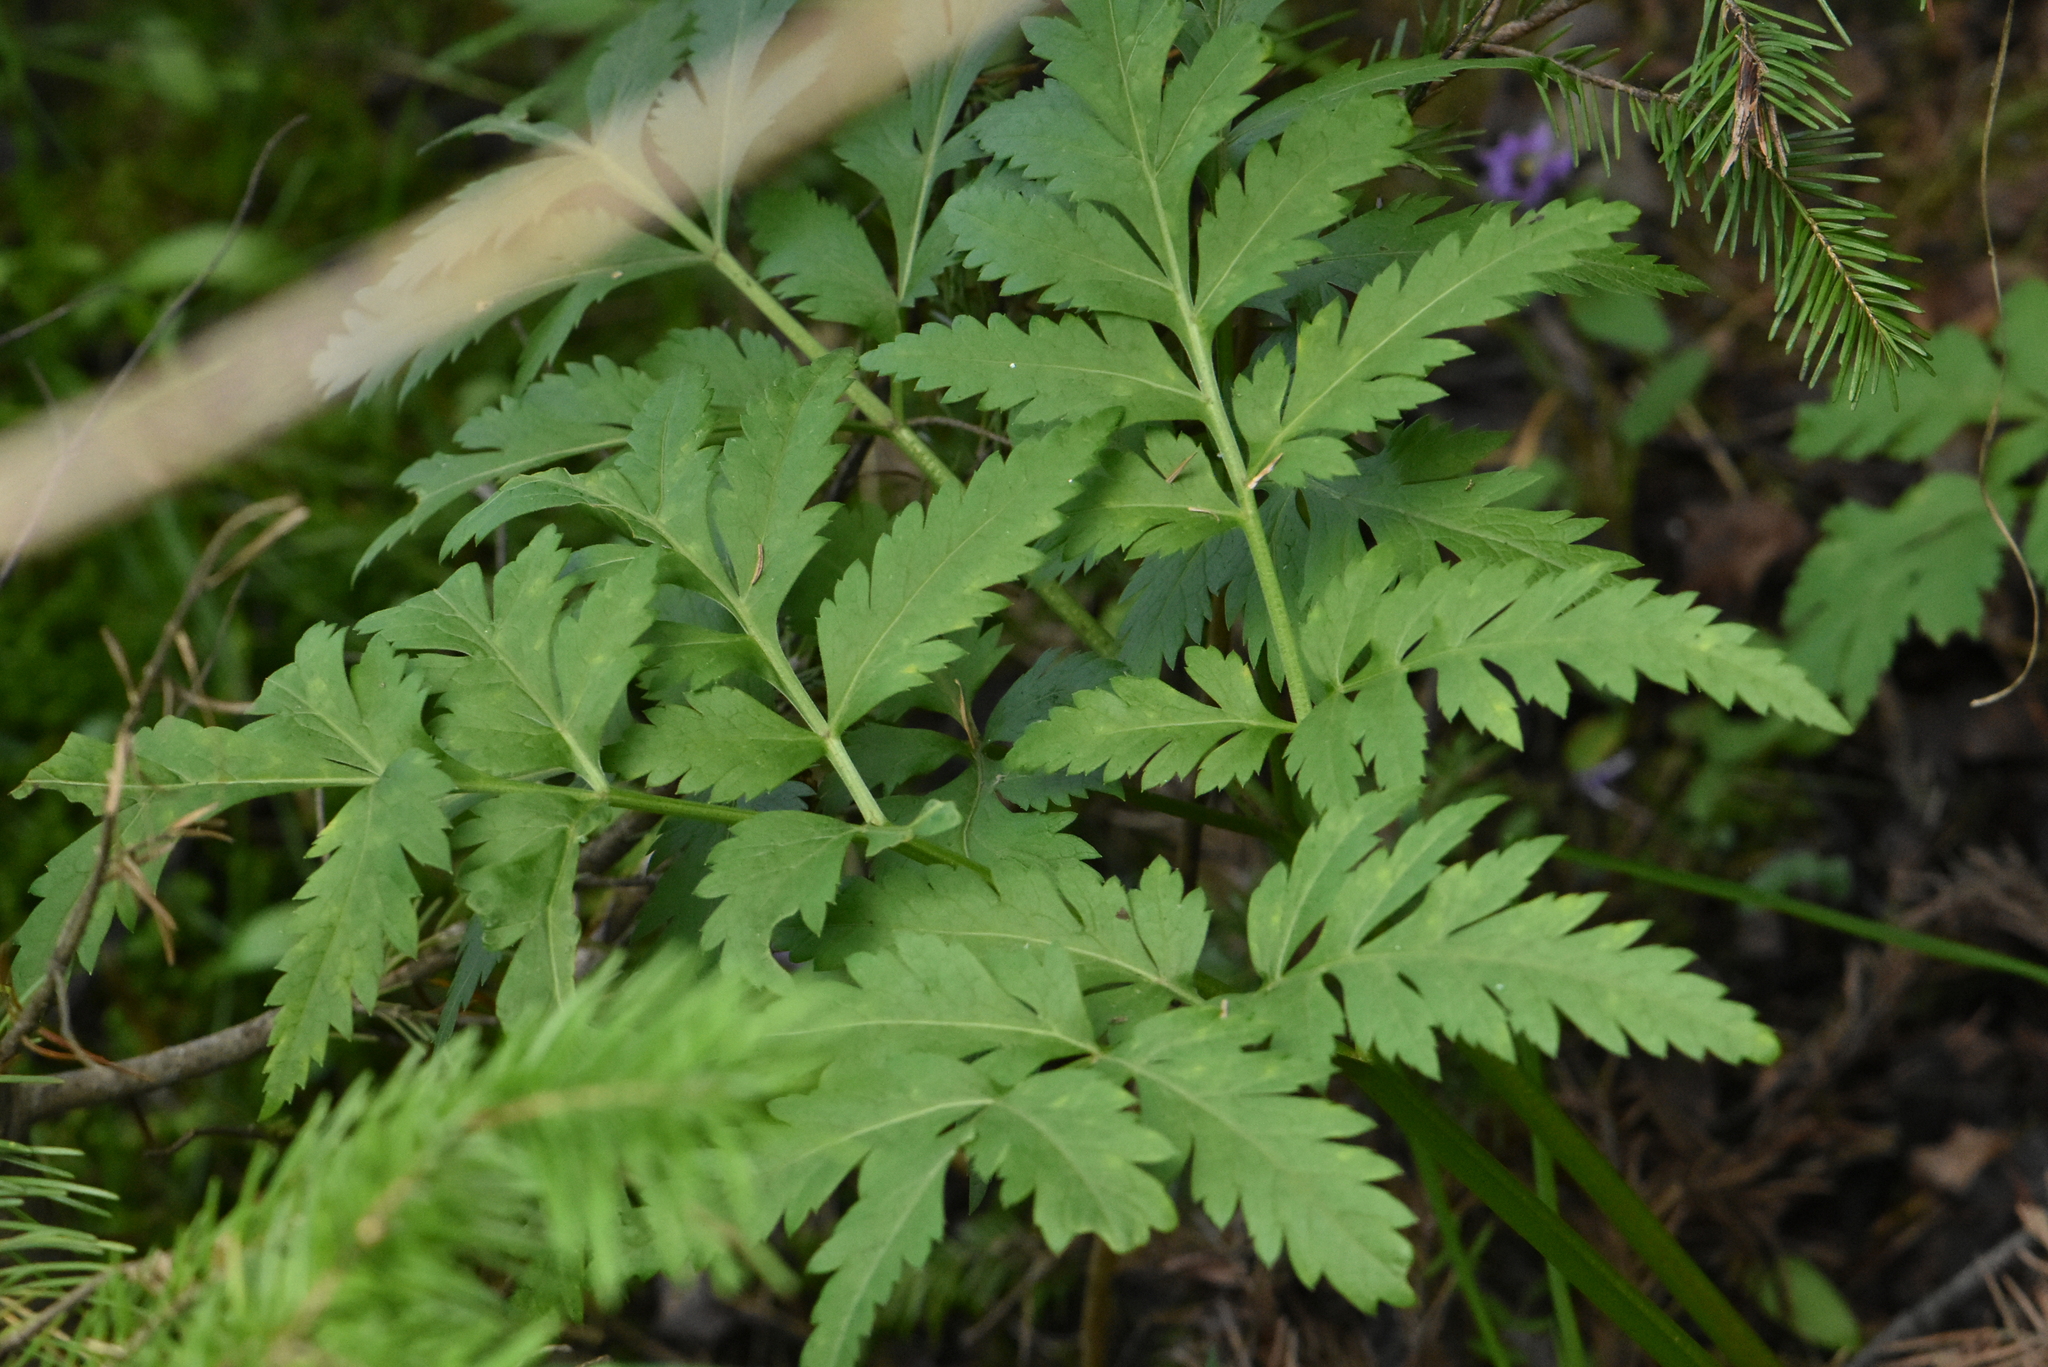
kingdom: Plantae
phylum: Tracheophyta
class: Magnoliopsida
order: Apiales
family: Apiaceae
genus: Pleurospermum
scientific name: Pleurospermum uralense
